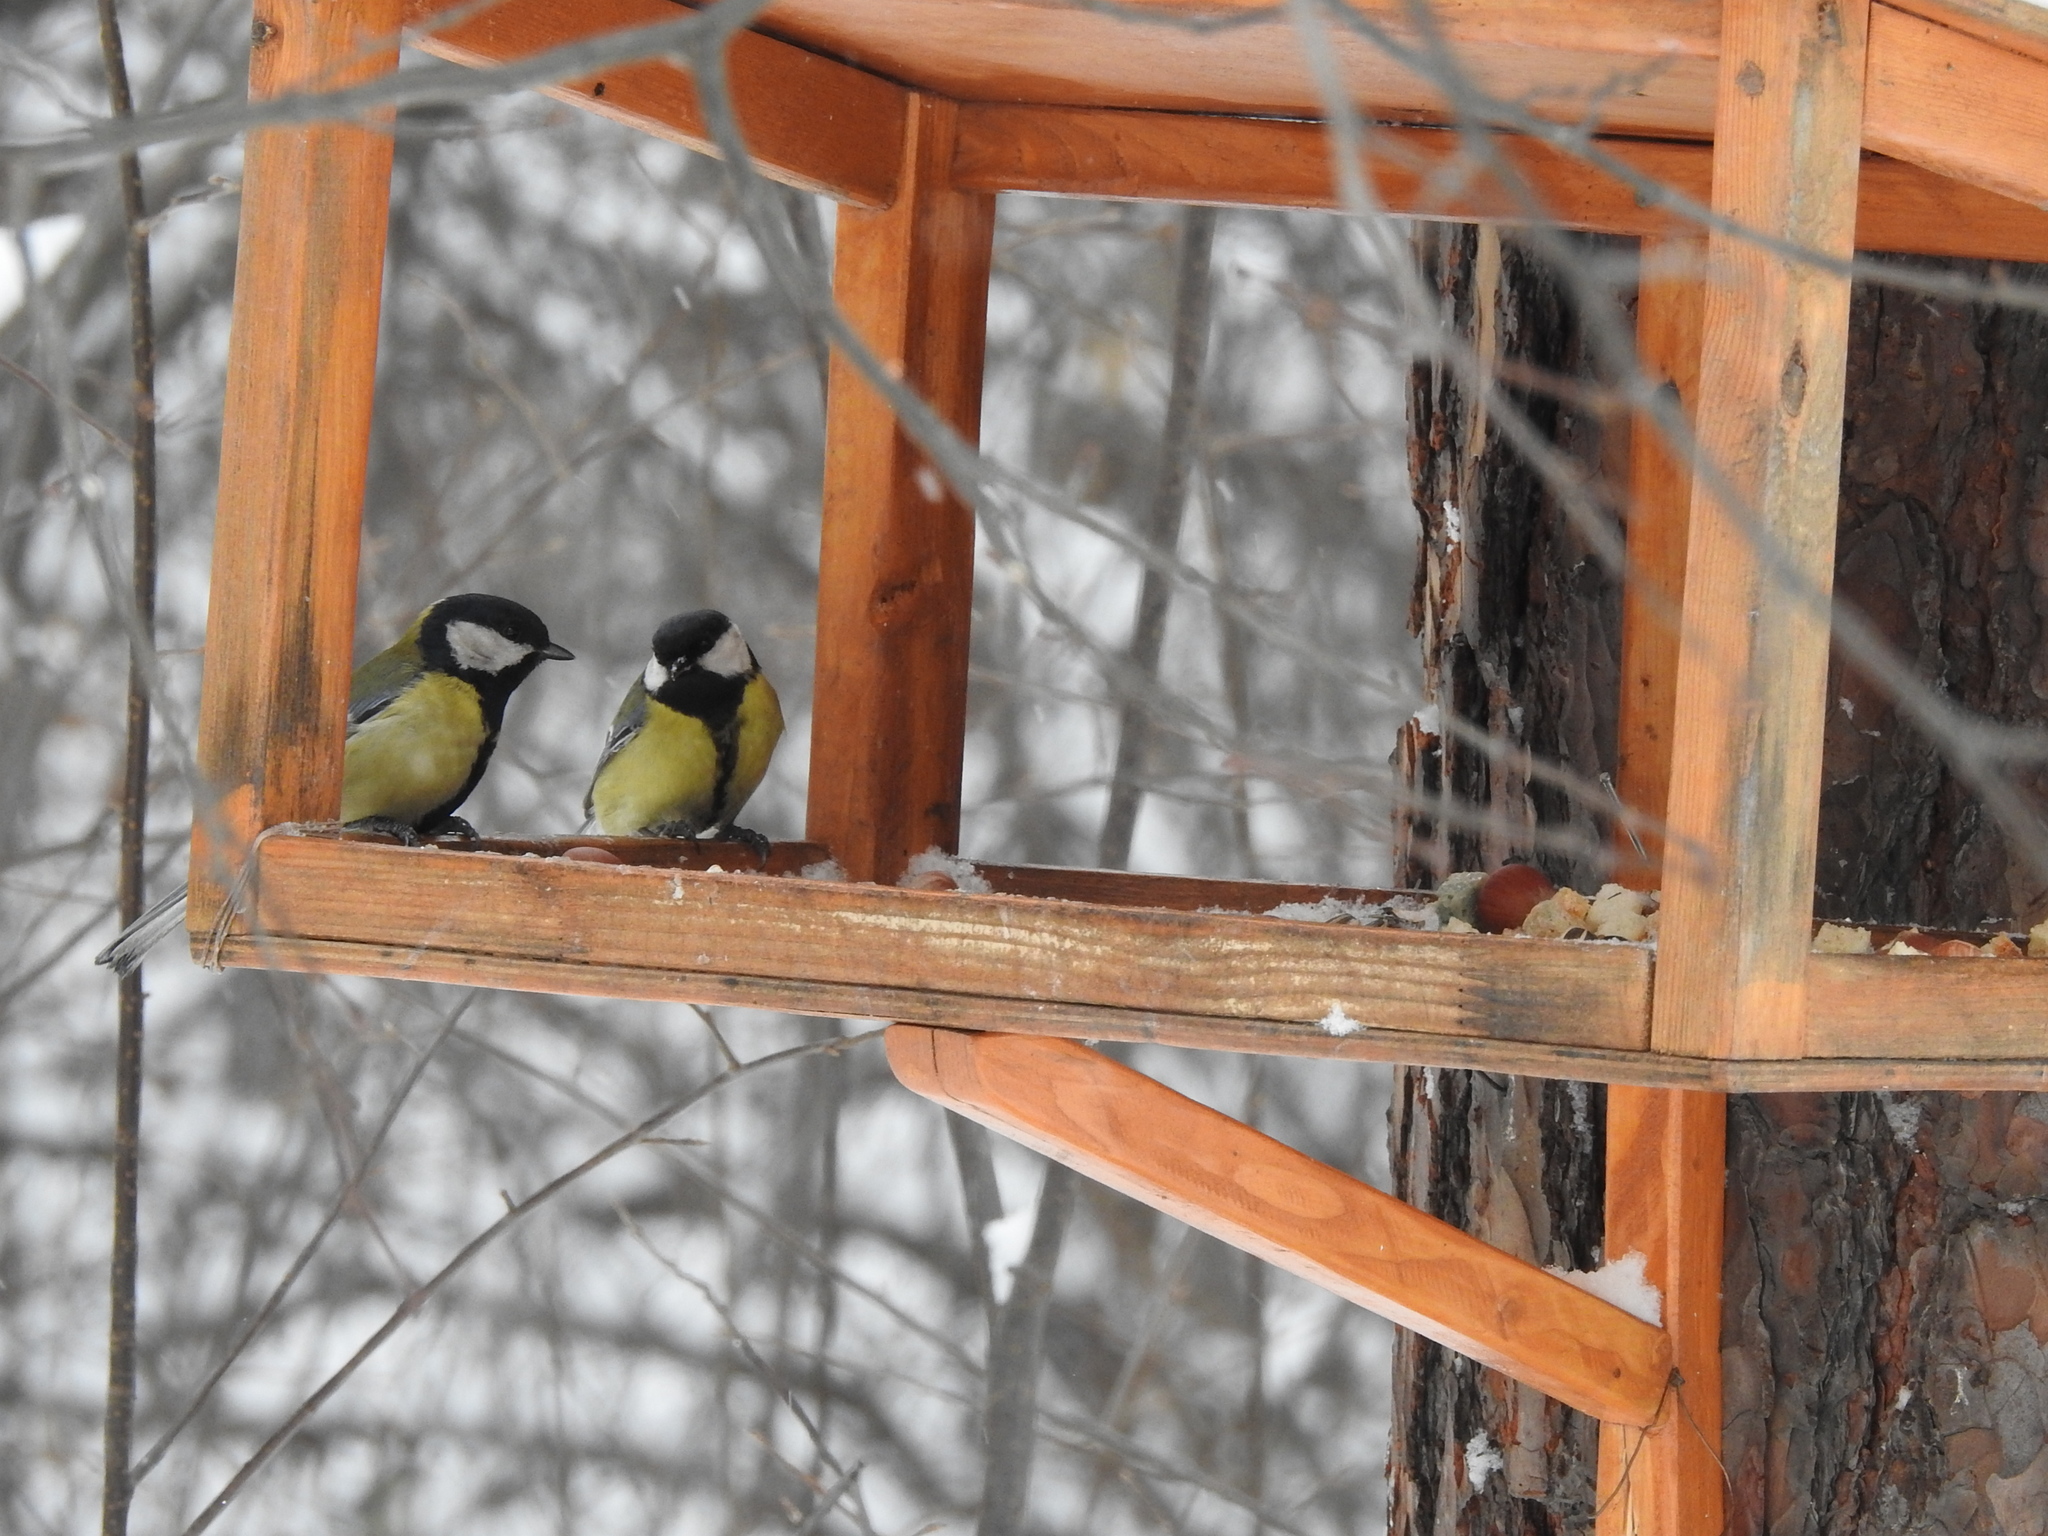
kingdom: Animalia
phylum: Chordata
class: Aves
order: Passeriformes
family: Paridae
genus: Parus
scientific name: Parus major
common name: Great tit
